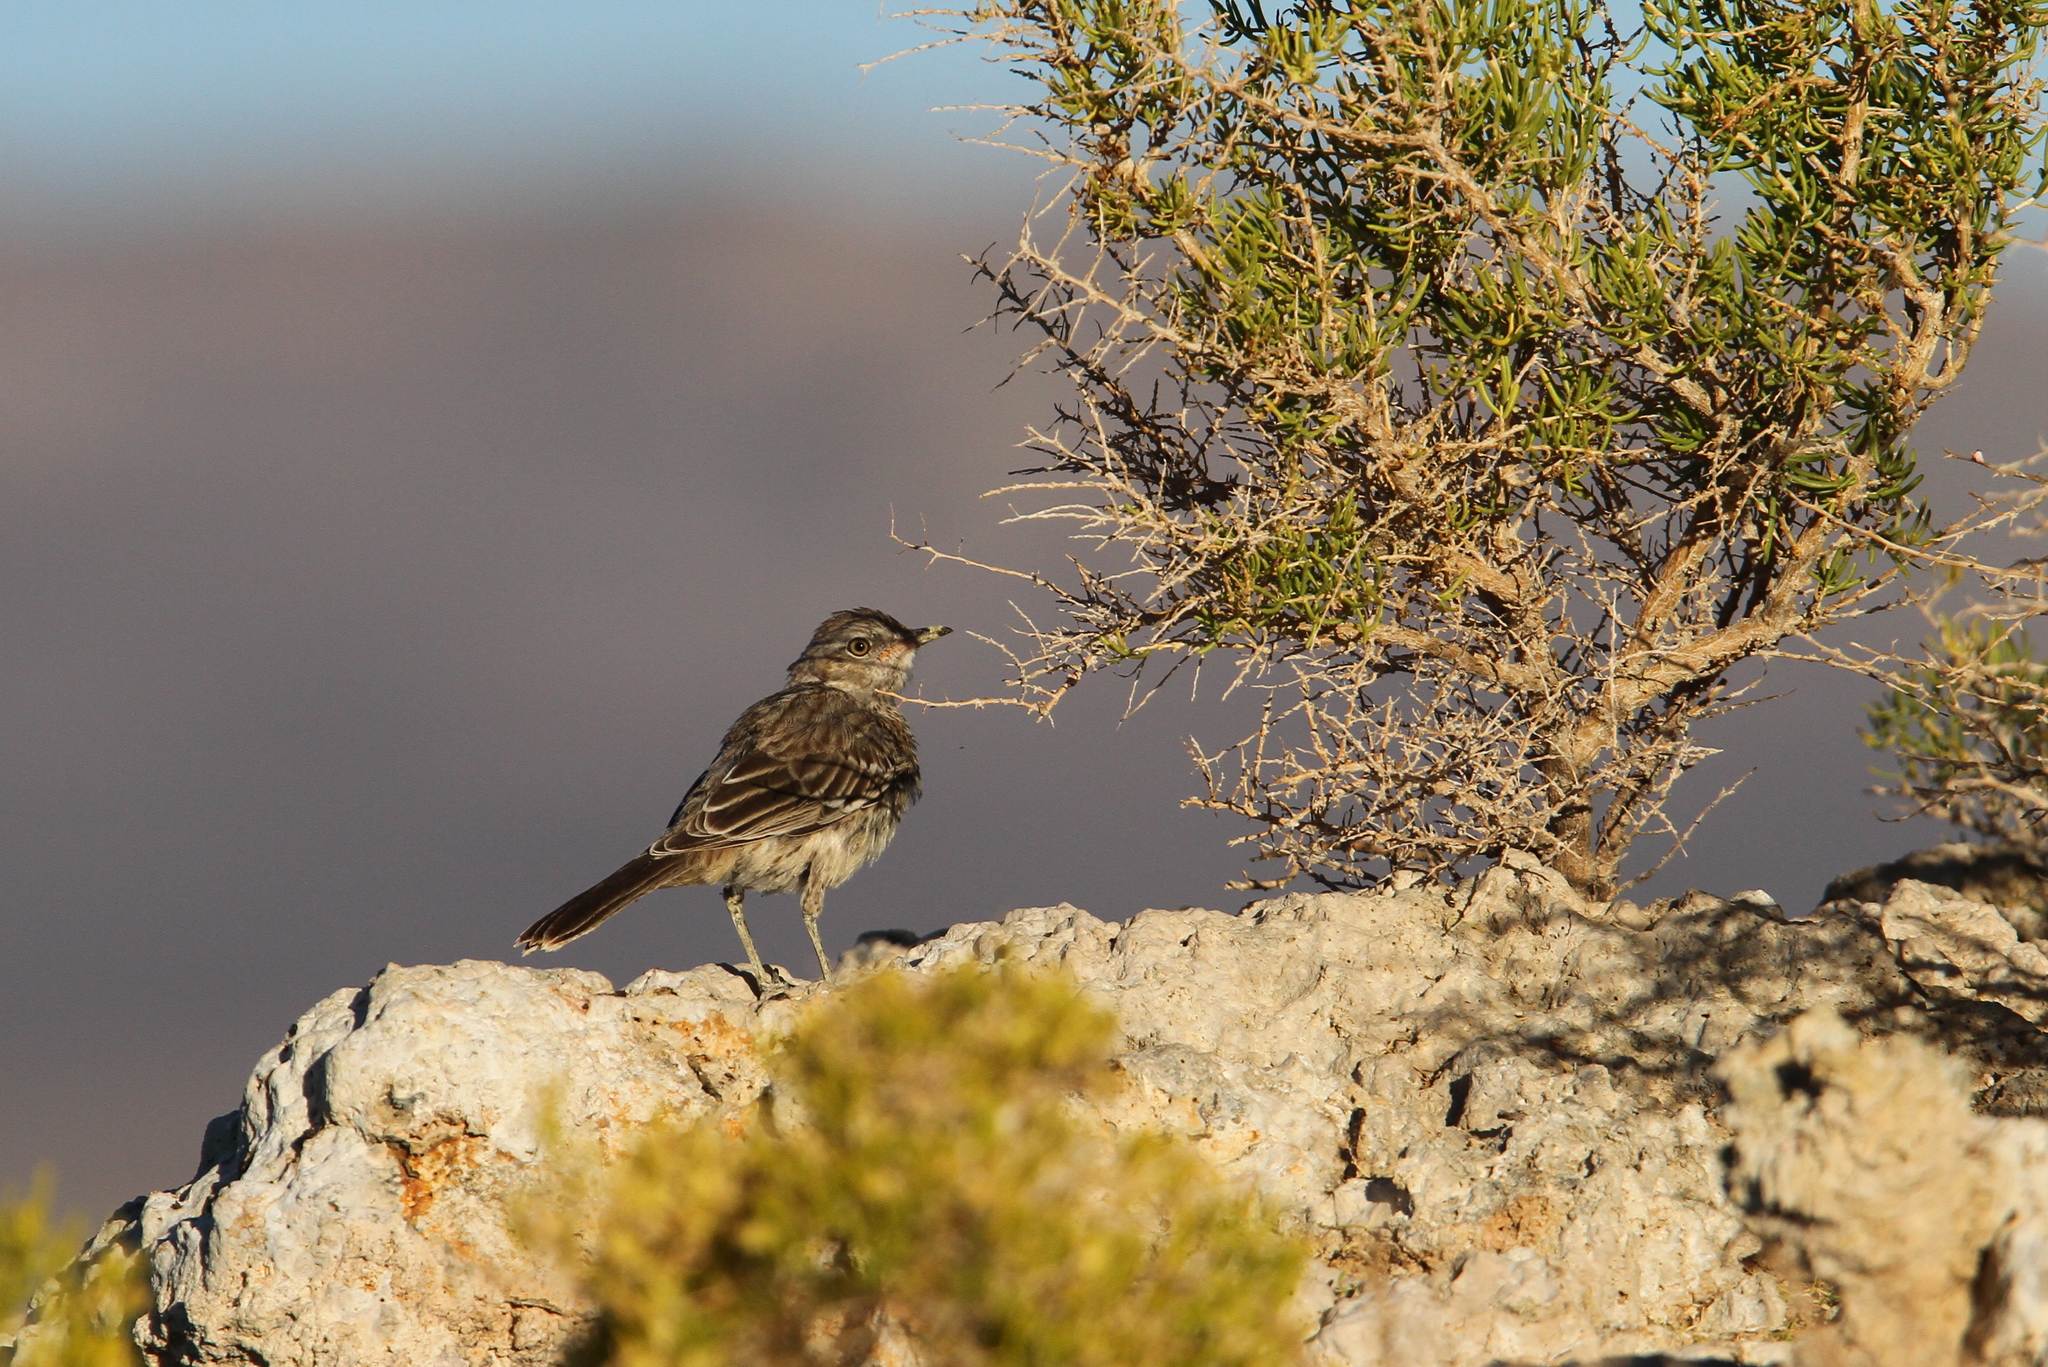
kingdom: Animalia
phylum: Chordata
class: Aves
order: Passeriformes
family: Mimidae
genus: Oreoscoptes
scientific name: Oreoscoptes montanus
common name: Sage thrasher
